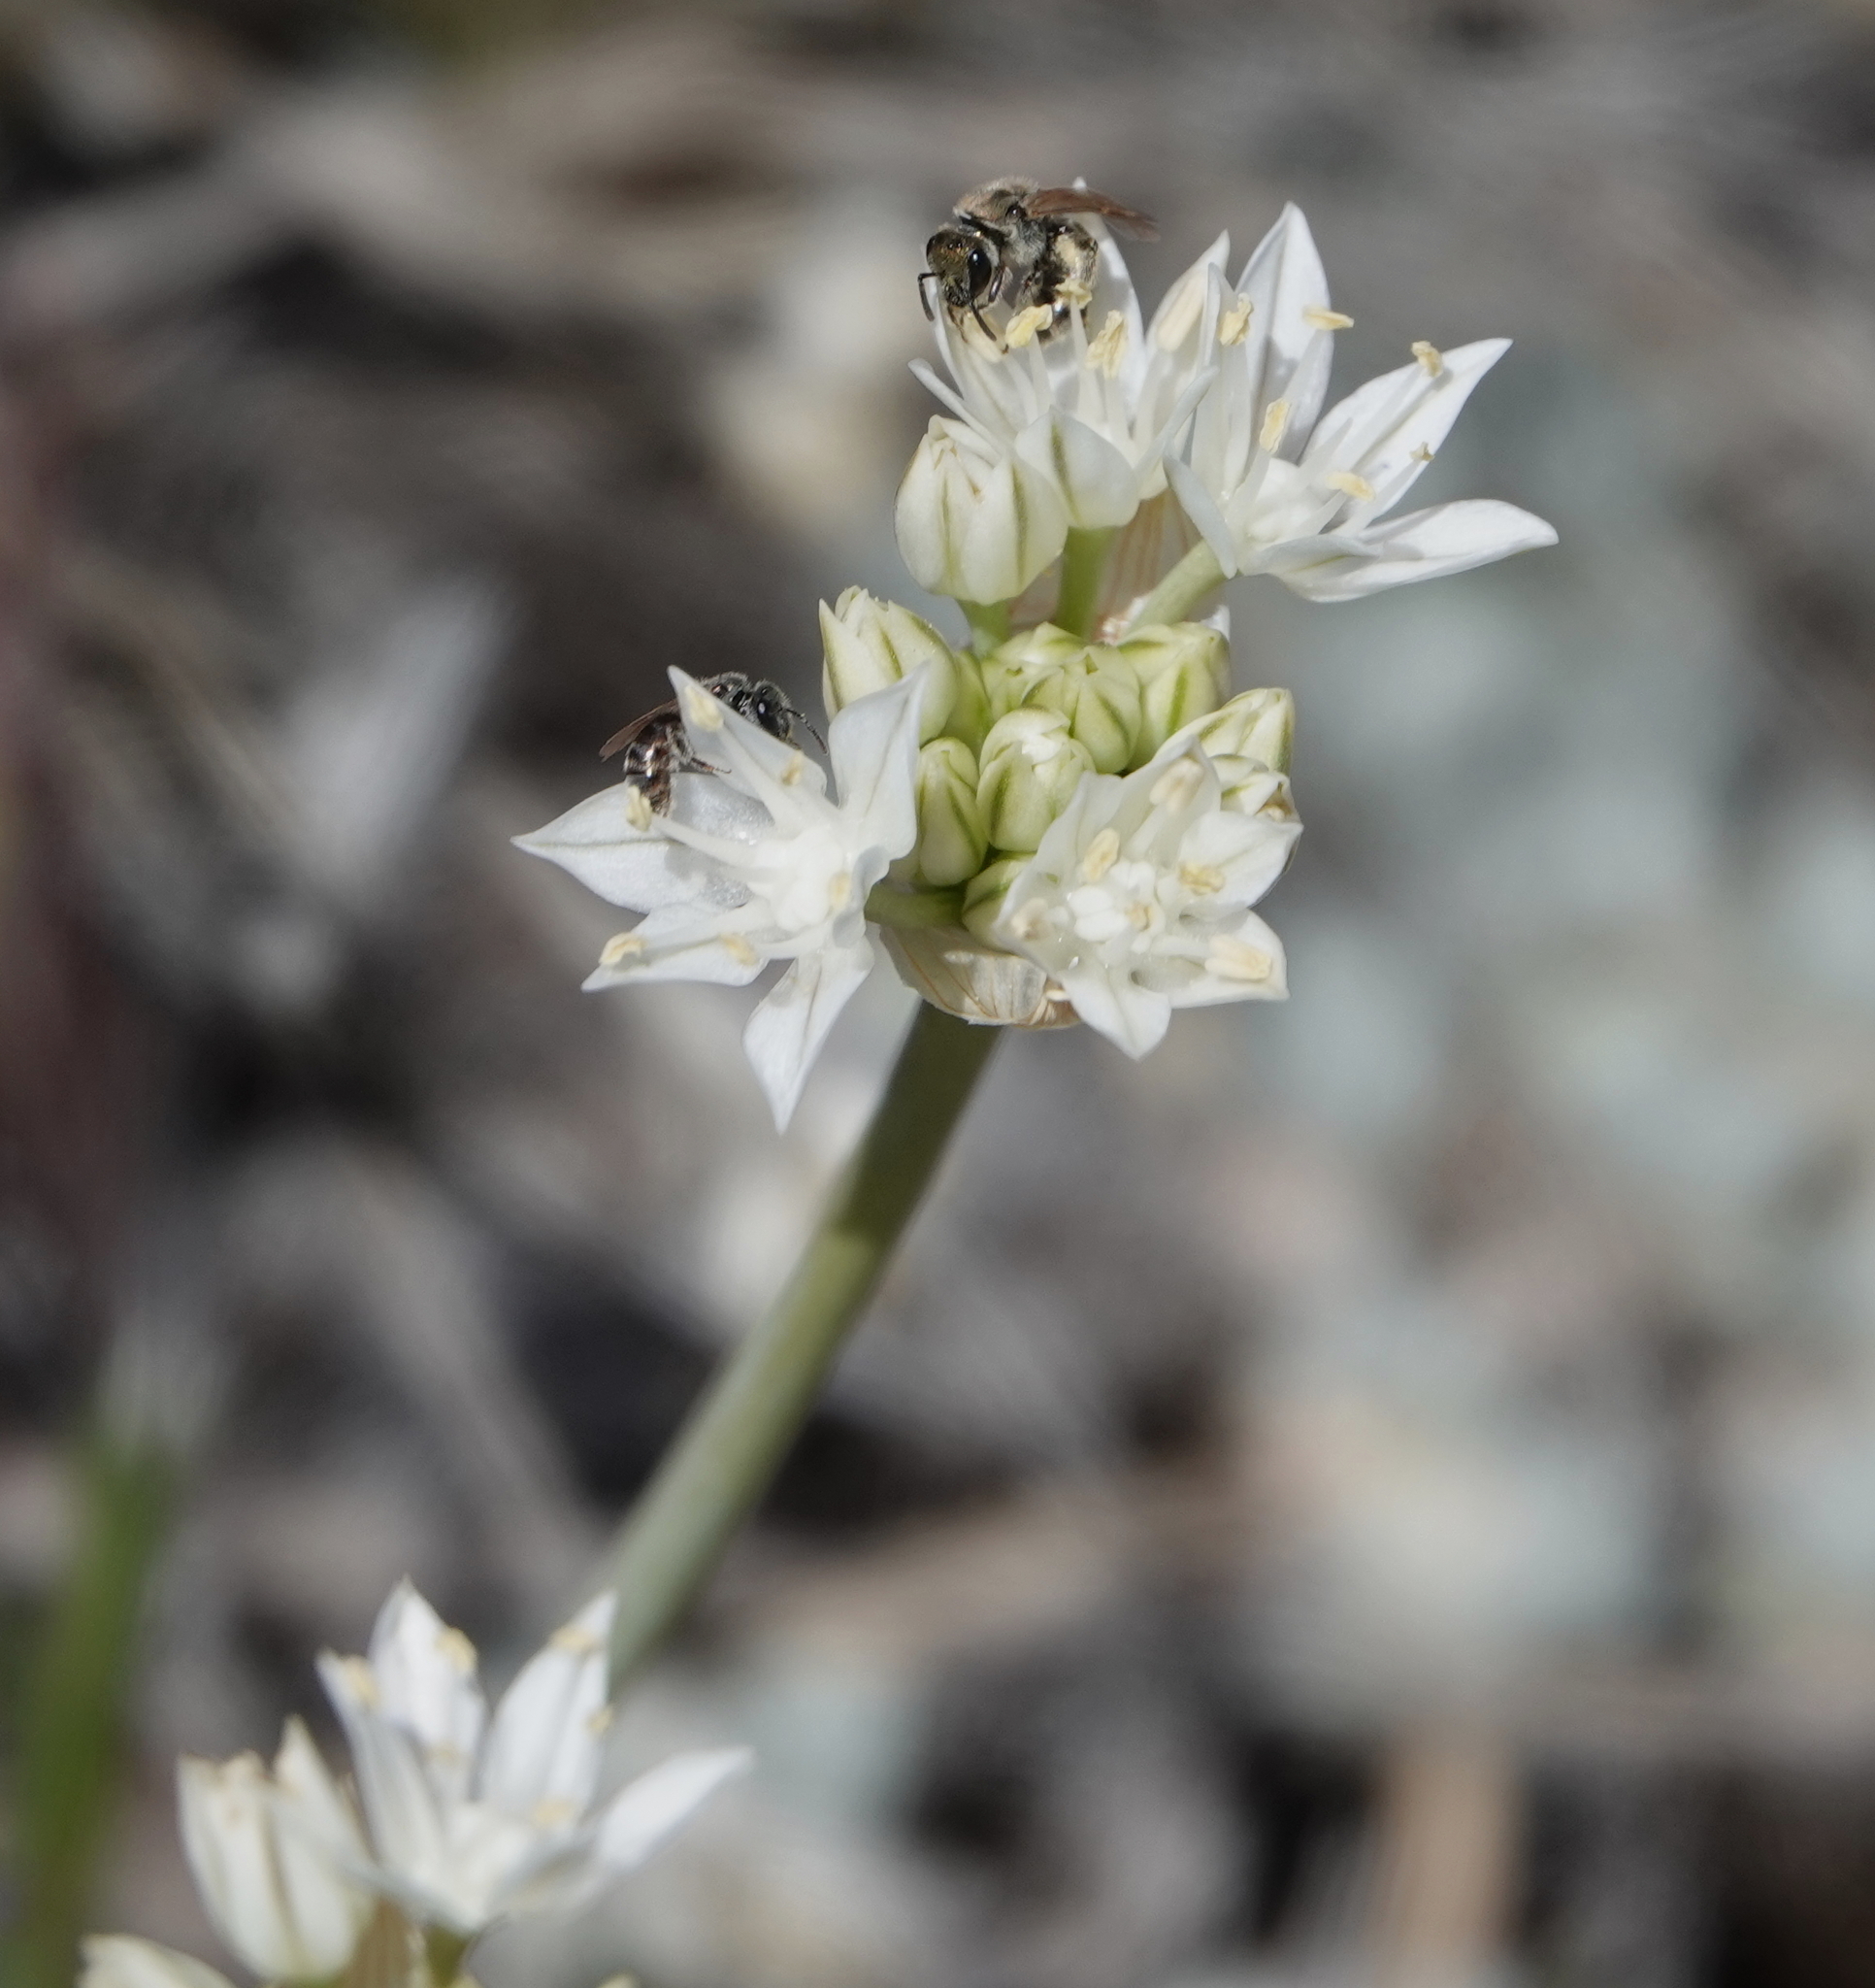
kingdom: Plantae
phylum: Tracheophyta
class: Liliopsida
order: Asparagales
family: Amaryllidaceae
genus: Allium
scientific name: Allium lacunosum
